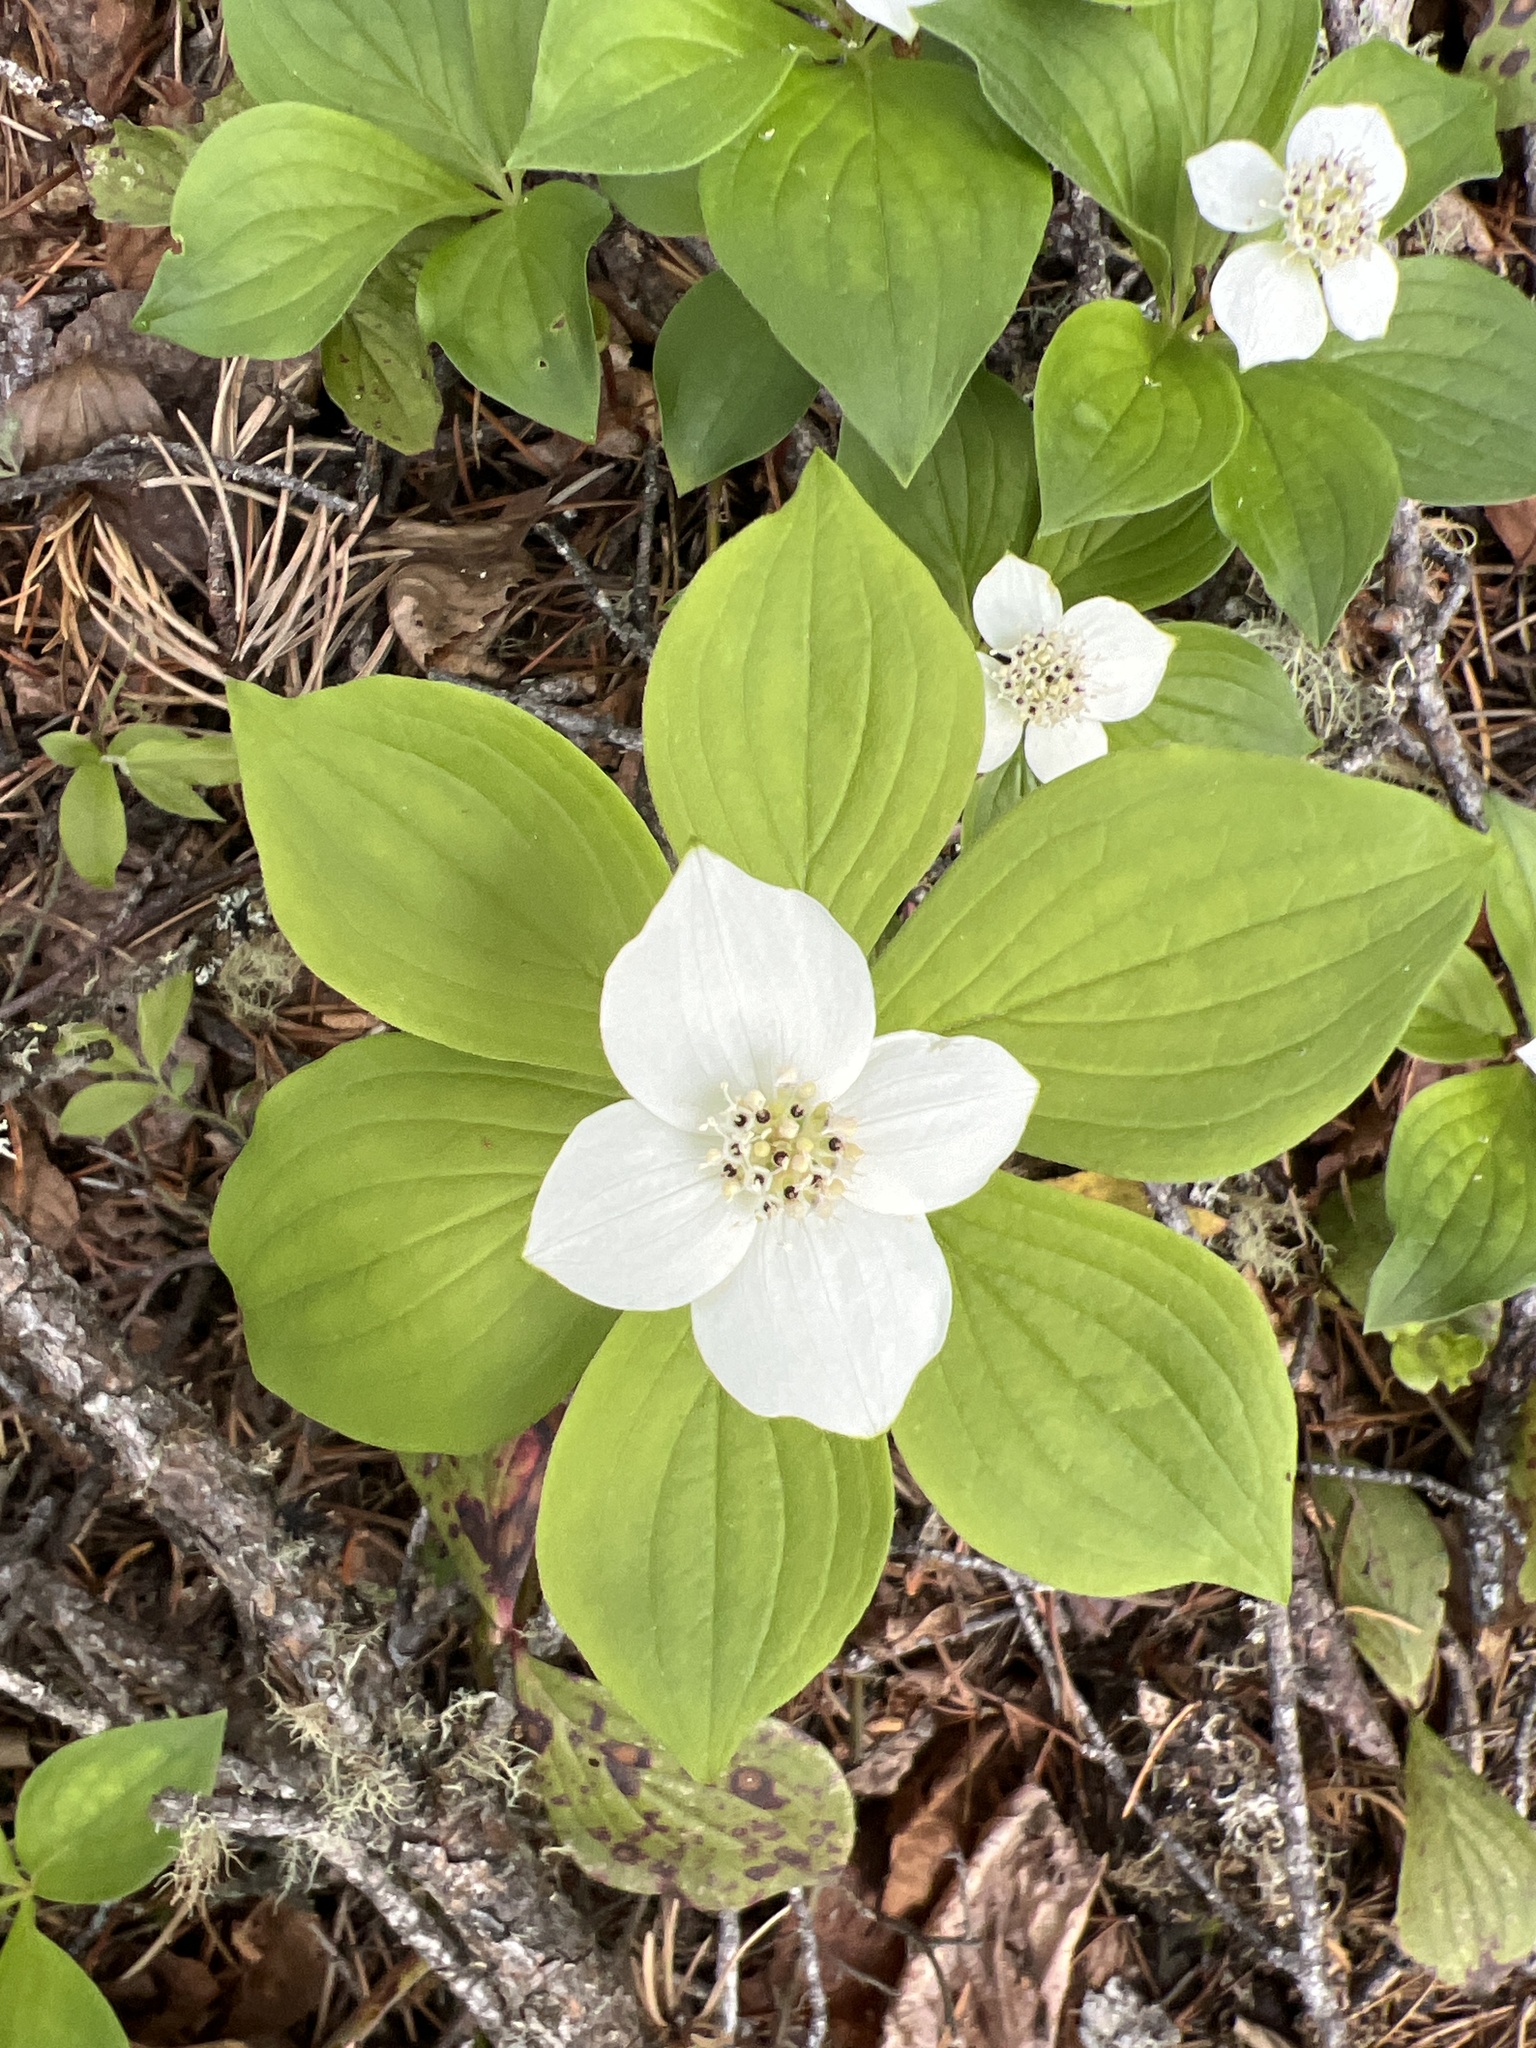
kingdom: Plantae
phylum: Tracheophyta
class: Magnoliopsida
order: Cornales
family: Cornaceae
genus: Cornus
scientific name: Cornus canadensis
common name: Creeping dogwood
